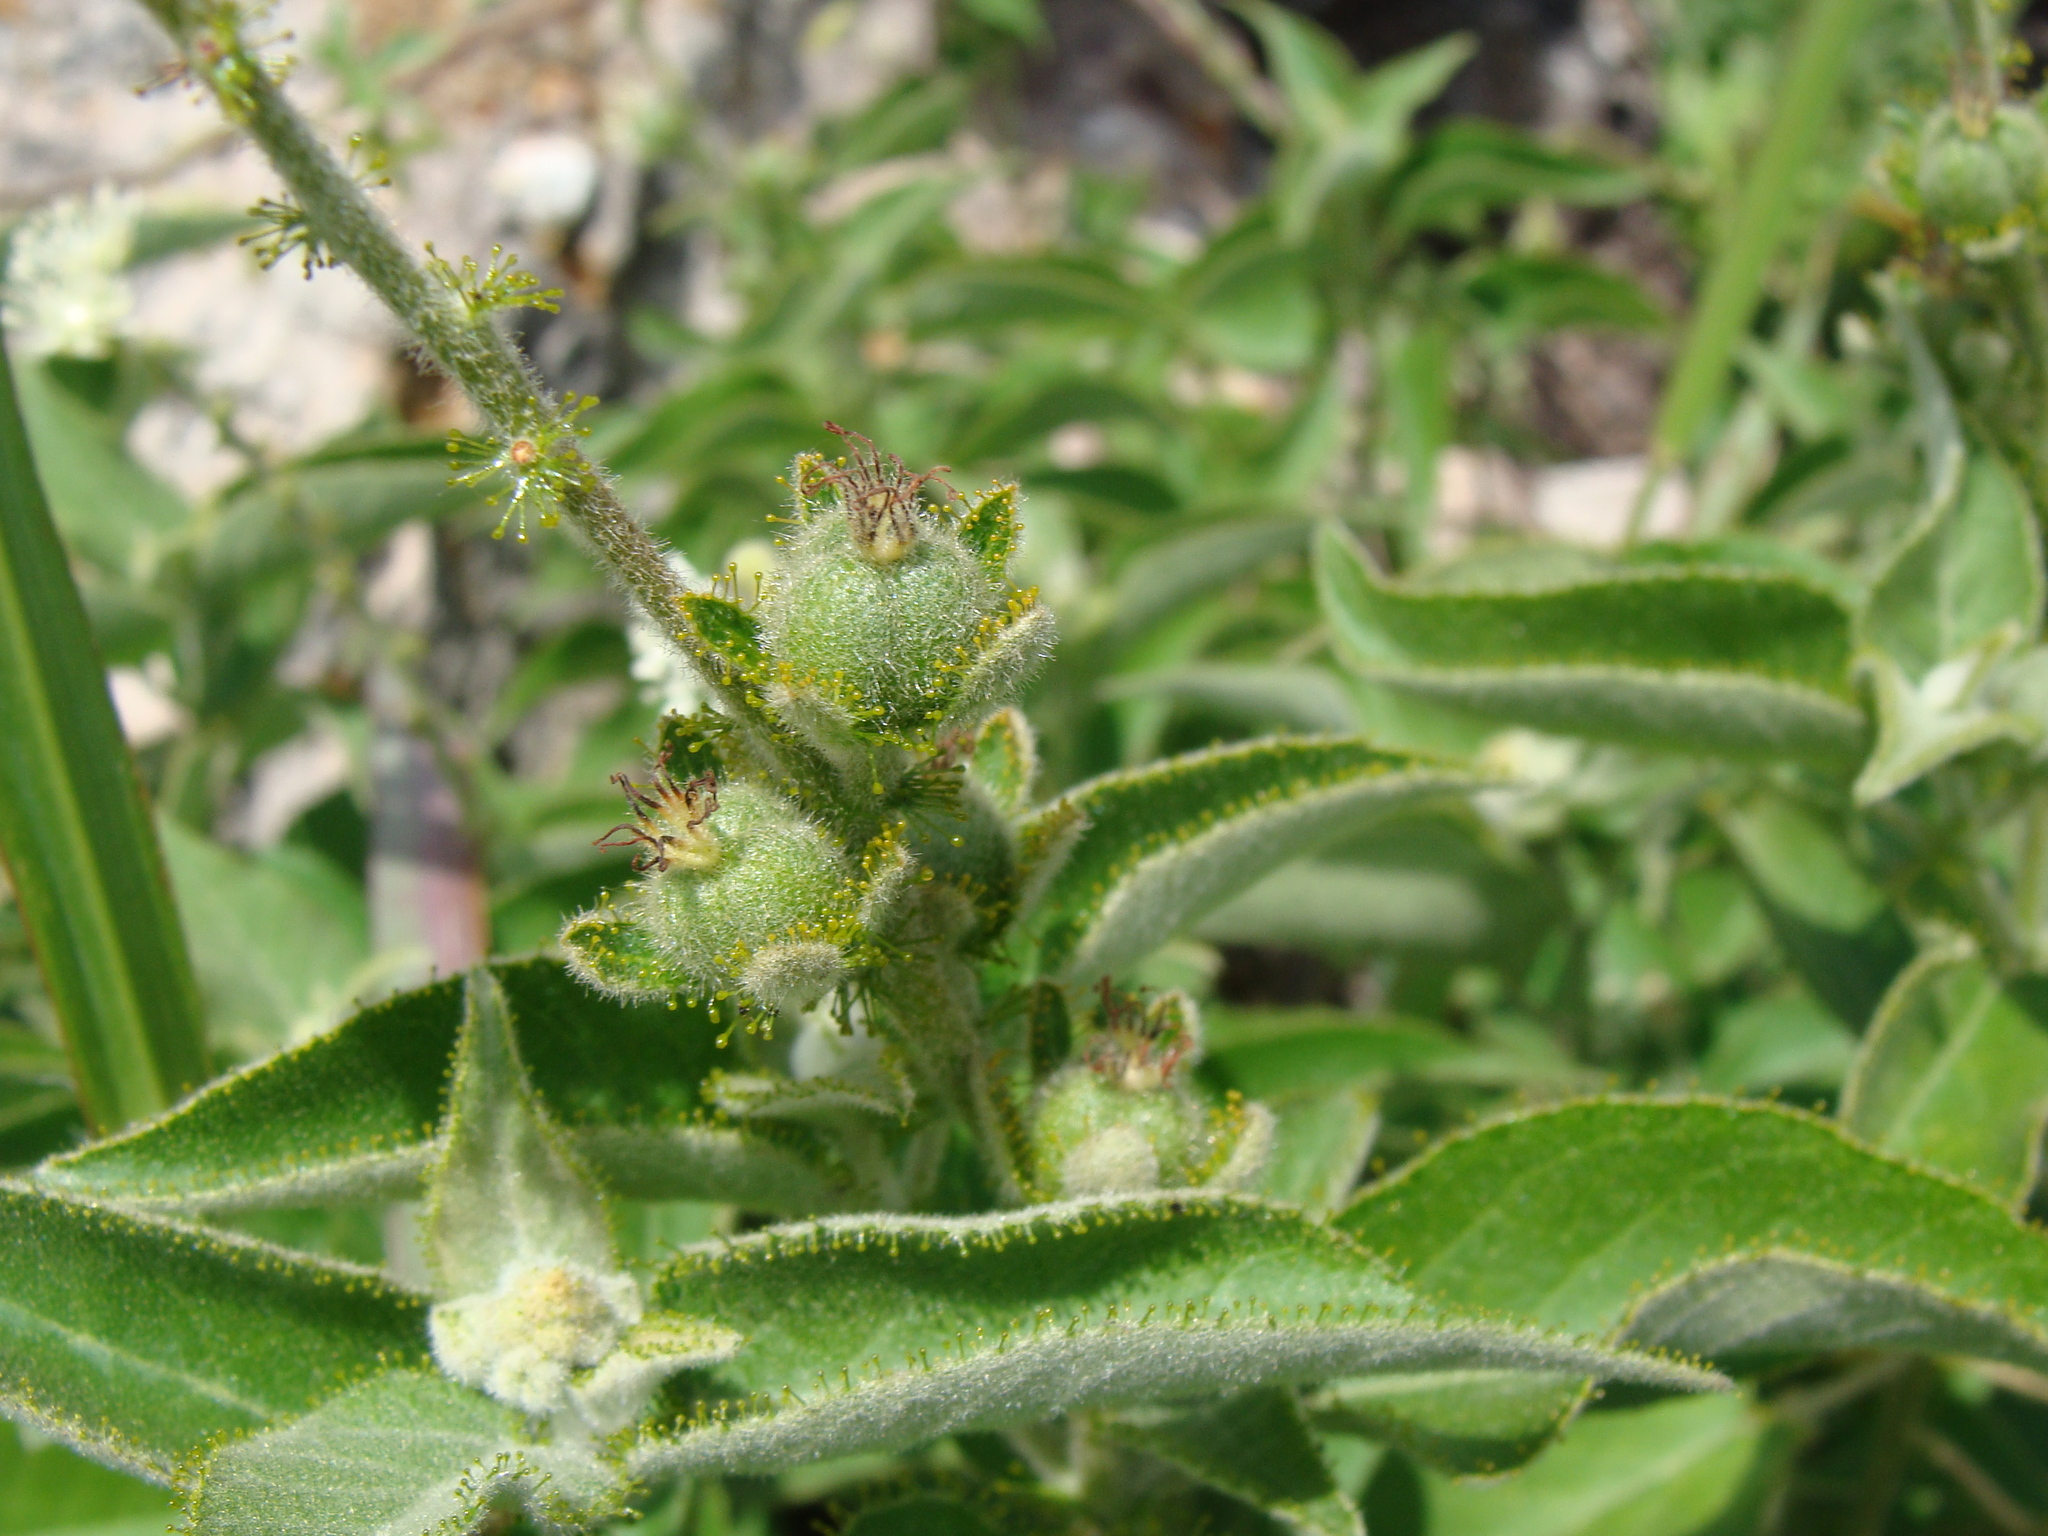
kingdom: Plantae
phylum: Tracheophyta
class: Magnoliopsida
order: Malpighiales
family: Euphorbiaceae
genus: Croton
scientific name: Croton ciliatoglandulifer
